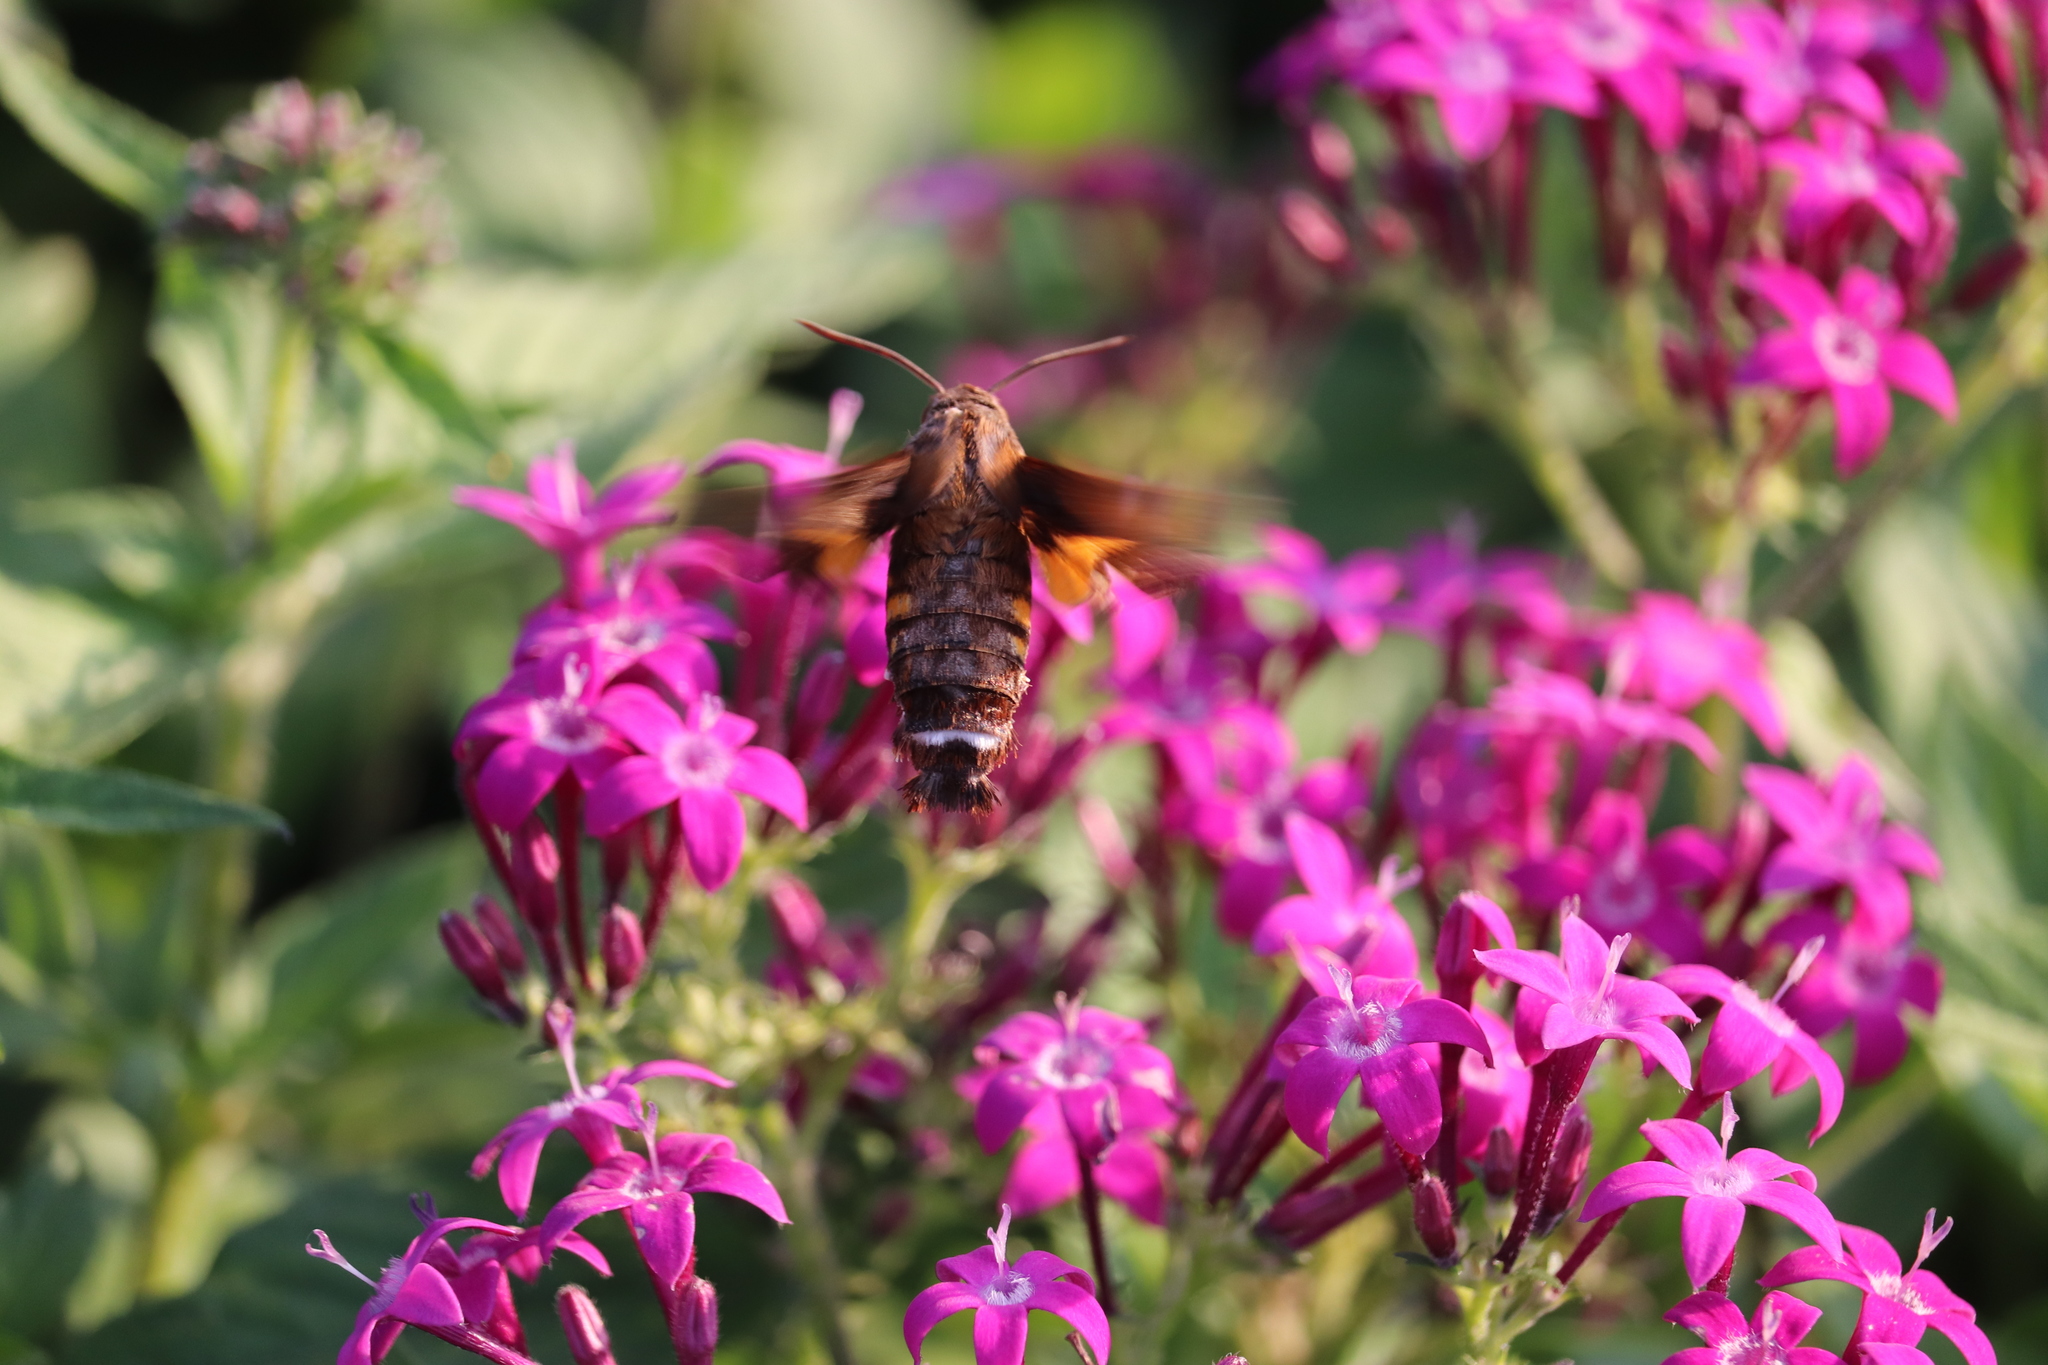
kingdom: Animalia
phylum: Arthropoda
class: Insecta
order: Lepidoptera
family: Sphingidae
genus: Macroglossum
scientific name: Macroglossum pyrrhosticta
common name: Hummingbird hawk moth
